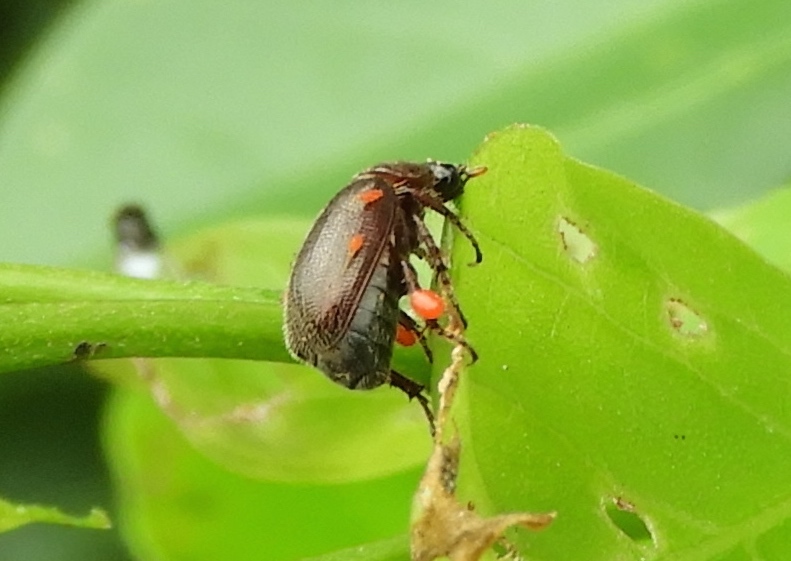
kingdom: Animalia
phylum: Arthropoda
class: Insecta
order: Coleoptera
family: Scarabaeidae
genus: Diplotaxis
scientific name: Diplotaxis
